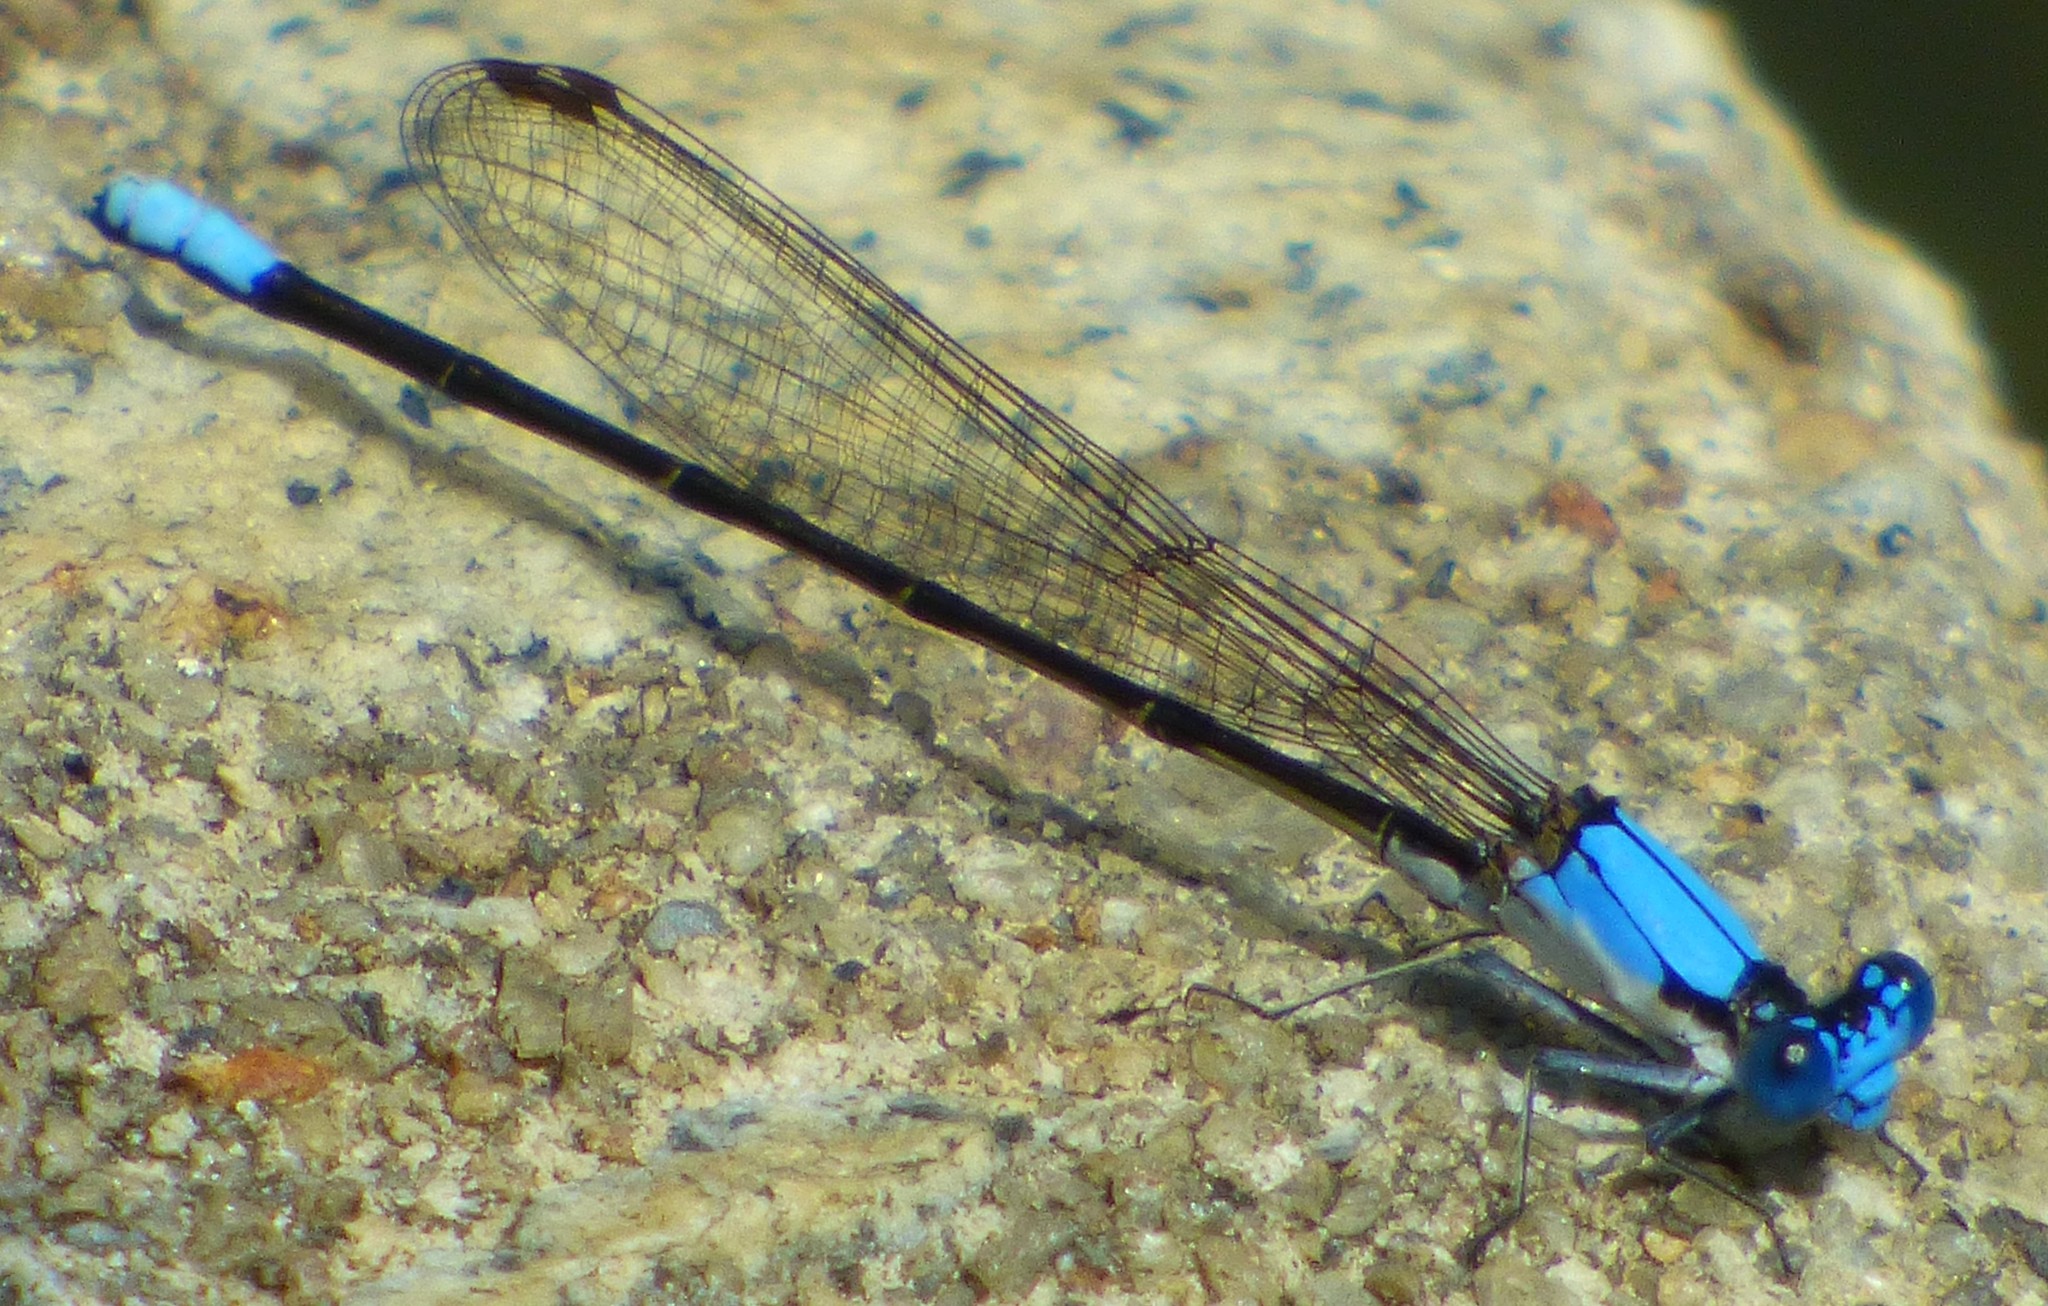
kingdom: Animalia
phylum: Arthropoda
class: Insecta
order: Odonata
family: Coenagrionidae
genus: Argia
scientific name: Argia apicalis
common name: Blue-fronted dancer
